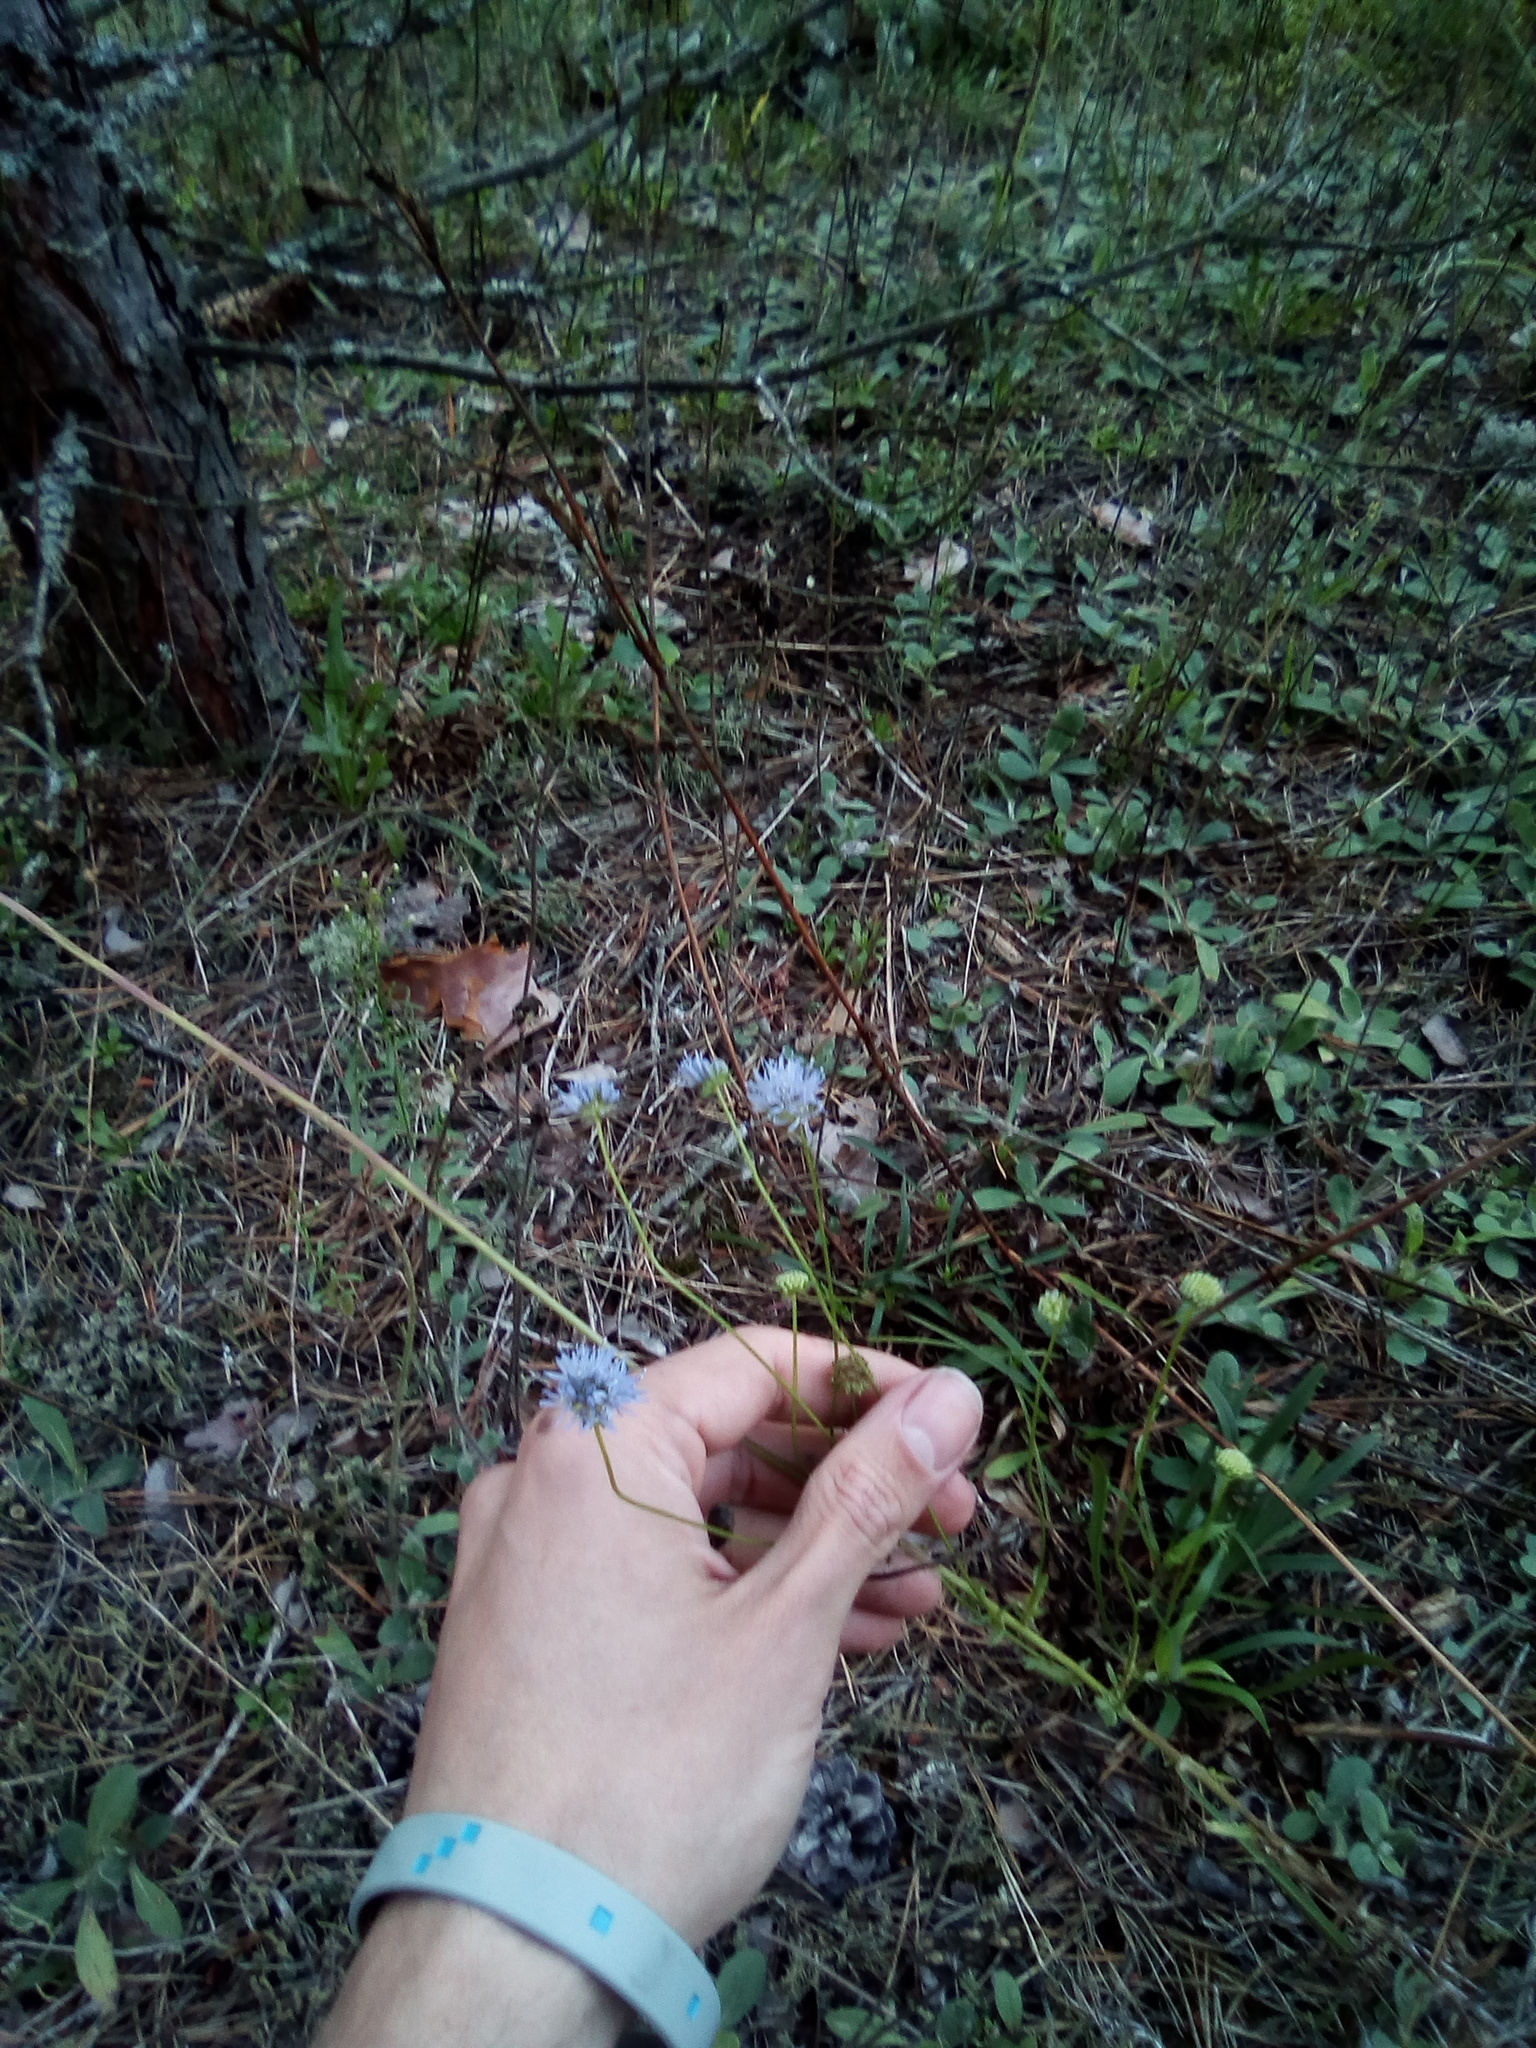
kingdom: Plantae
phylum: Tracheophyta
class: Magnoliopsida
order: Asterales
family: Campanulaceae
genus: Jasione
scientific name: Jasione montana
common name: Sheep's-bit
